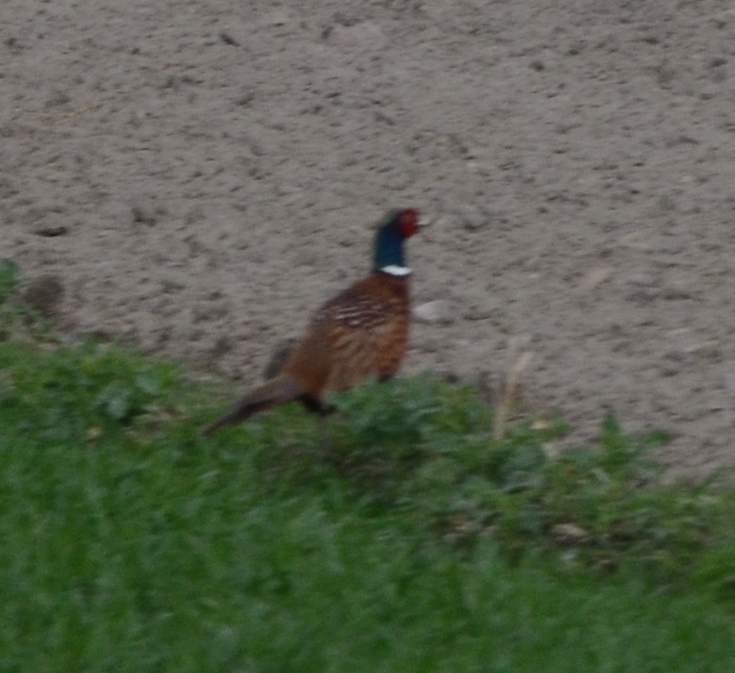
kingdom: Animalia
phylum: Chordata
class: Aves
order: Galliformes
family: Phasianidae
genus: Phasianus
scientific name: Phasianus colchicus
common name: Common pheasant
